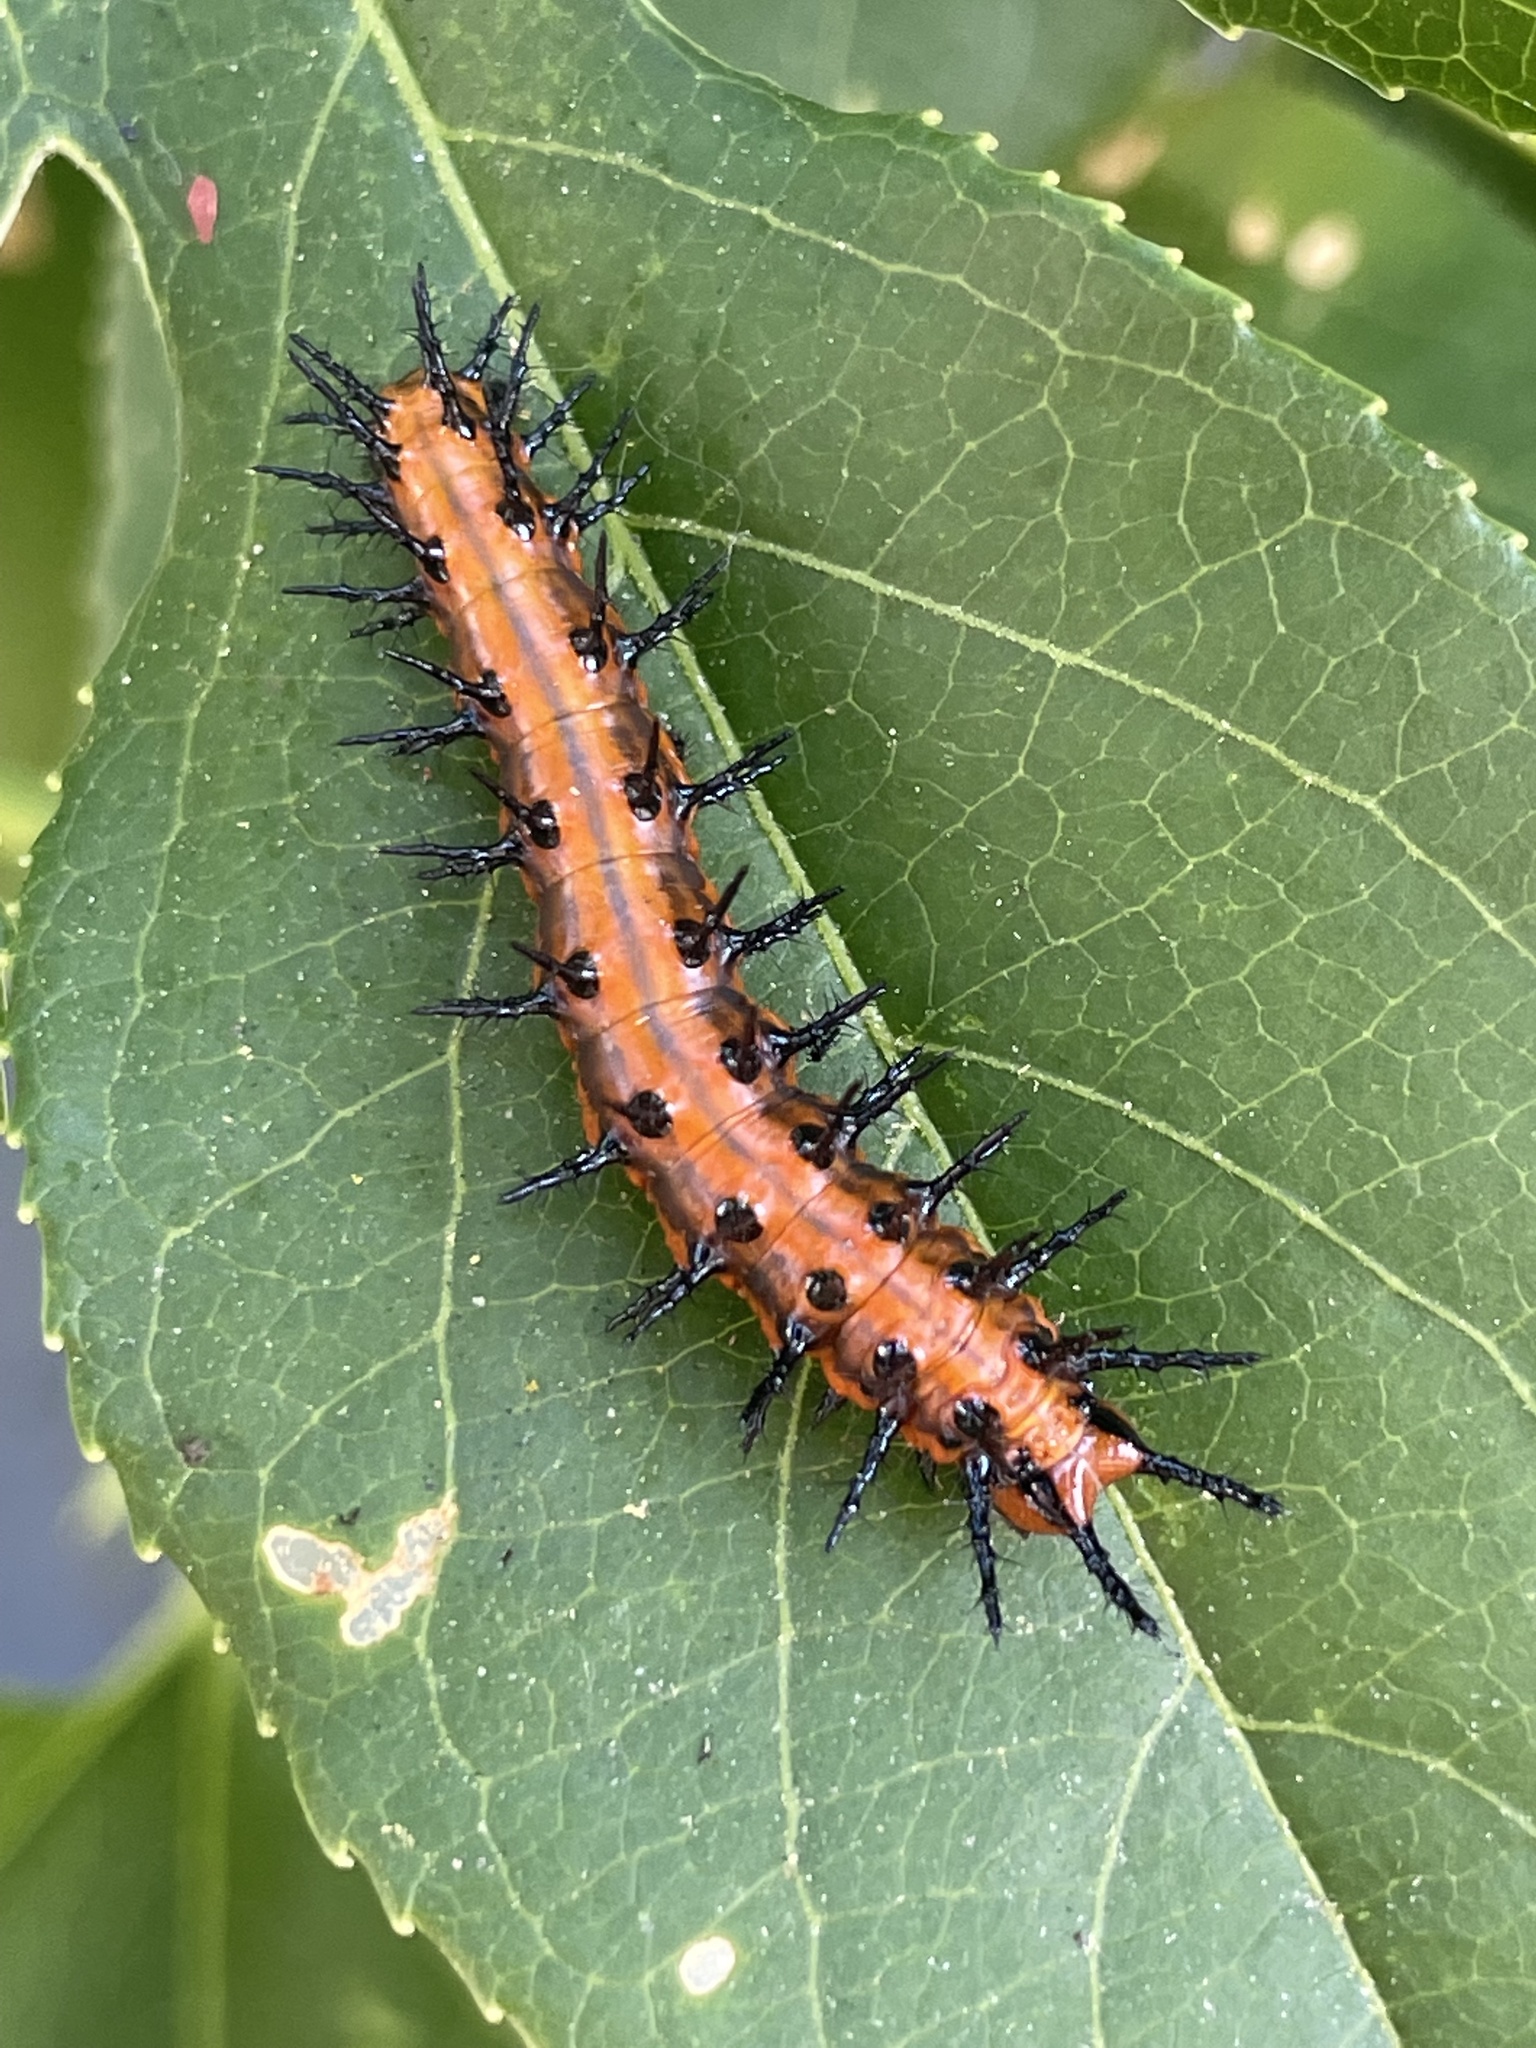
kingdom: Animalia
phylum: Arthropoda
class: Insecta
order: Lepidoptera
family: Nymphalidae
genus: Dione
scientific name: Dione vanillae
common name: Gulf fritillary
